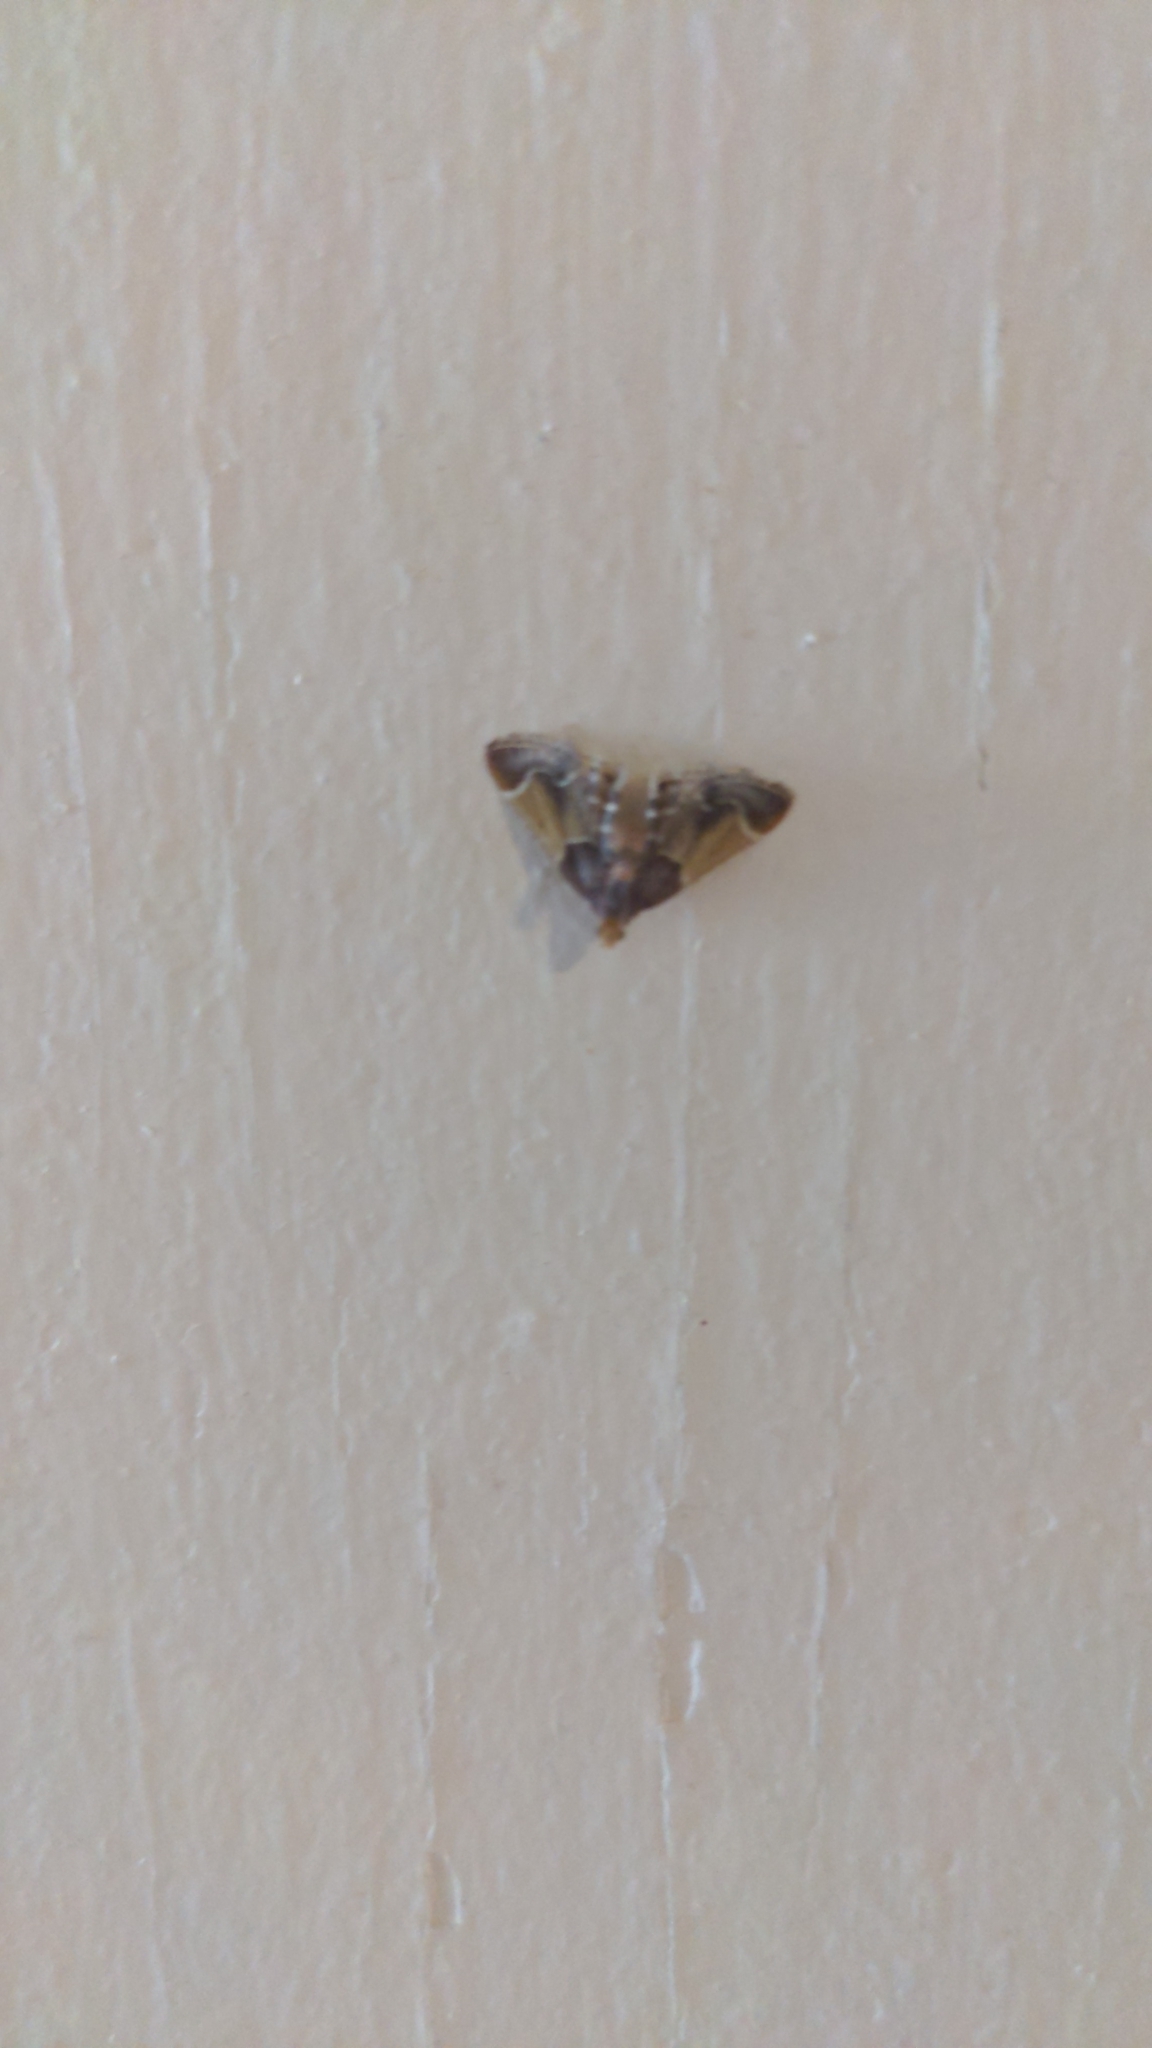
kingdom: Animalia
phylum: Arthropoda
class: Insecta
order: Lepidoptera
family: Pyralidae
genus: Pyralis
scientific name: Pyralis farinalis
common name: Meal moth
